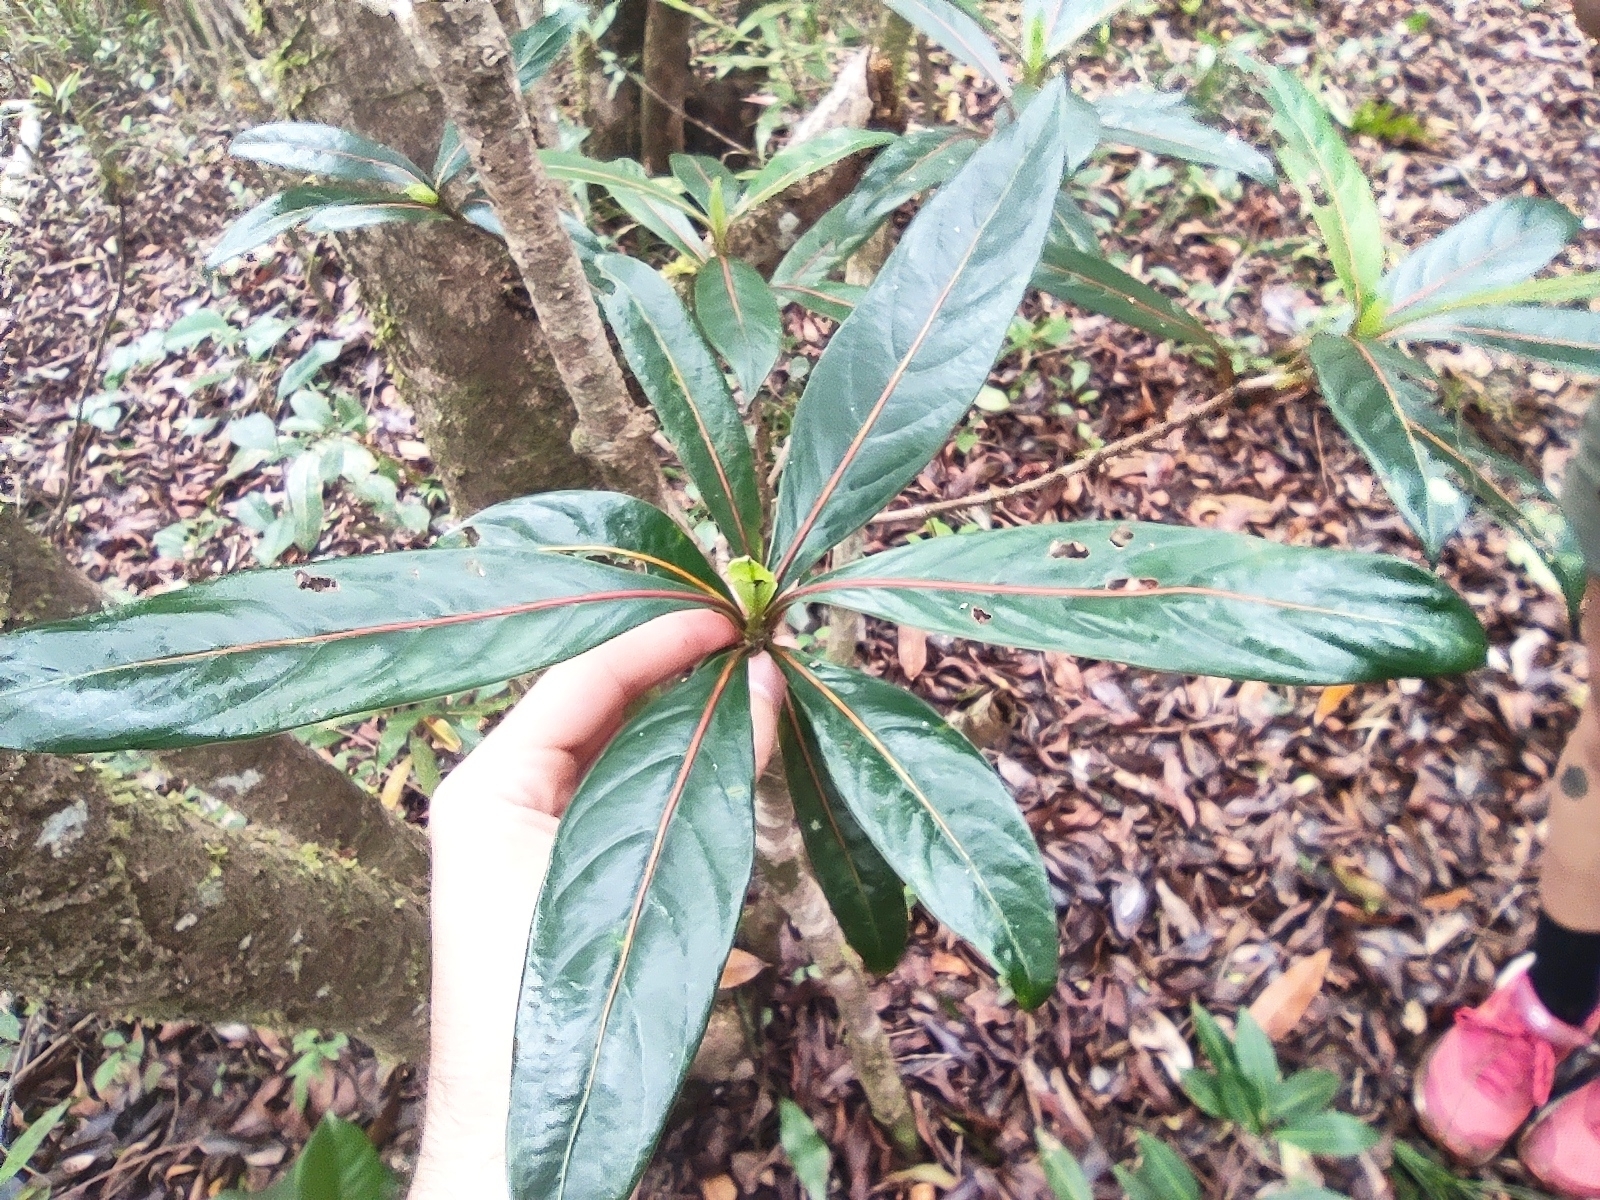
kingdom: Plantae
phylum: Tracheophyta
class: Magnoliopsida
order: Gentianales
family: Rubiaceae
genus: Gaertnera
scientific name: Gaertnera vaginata
